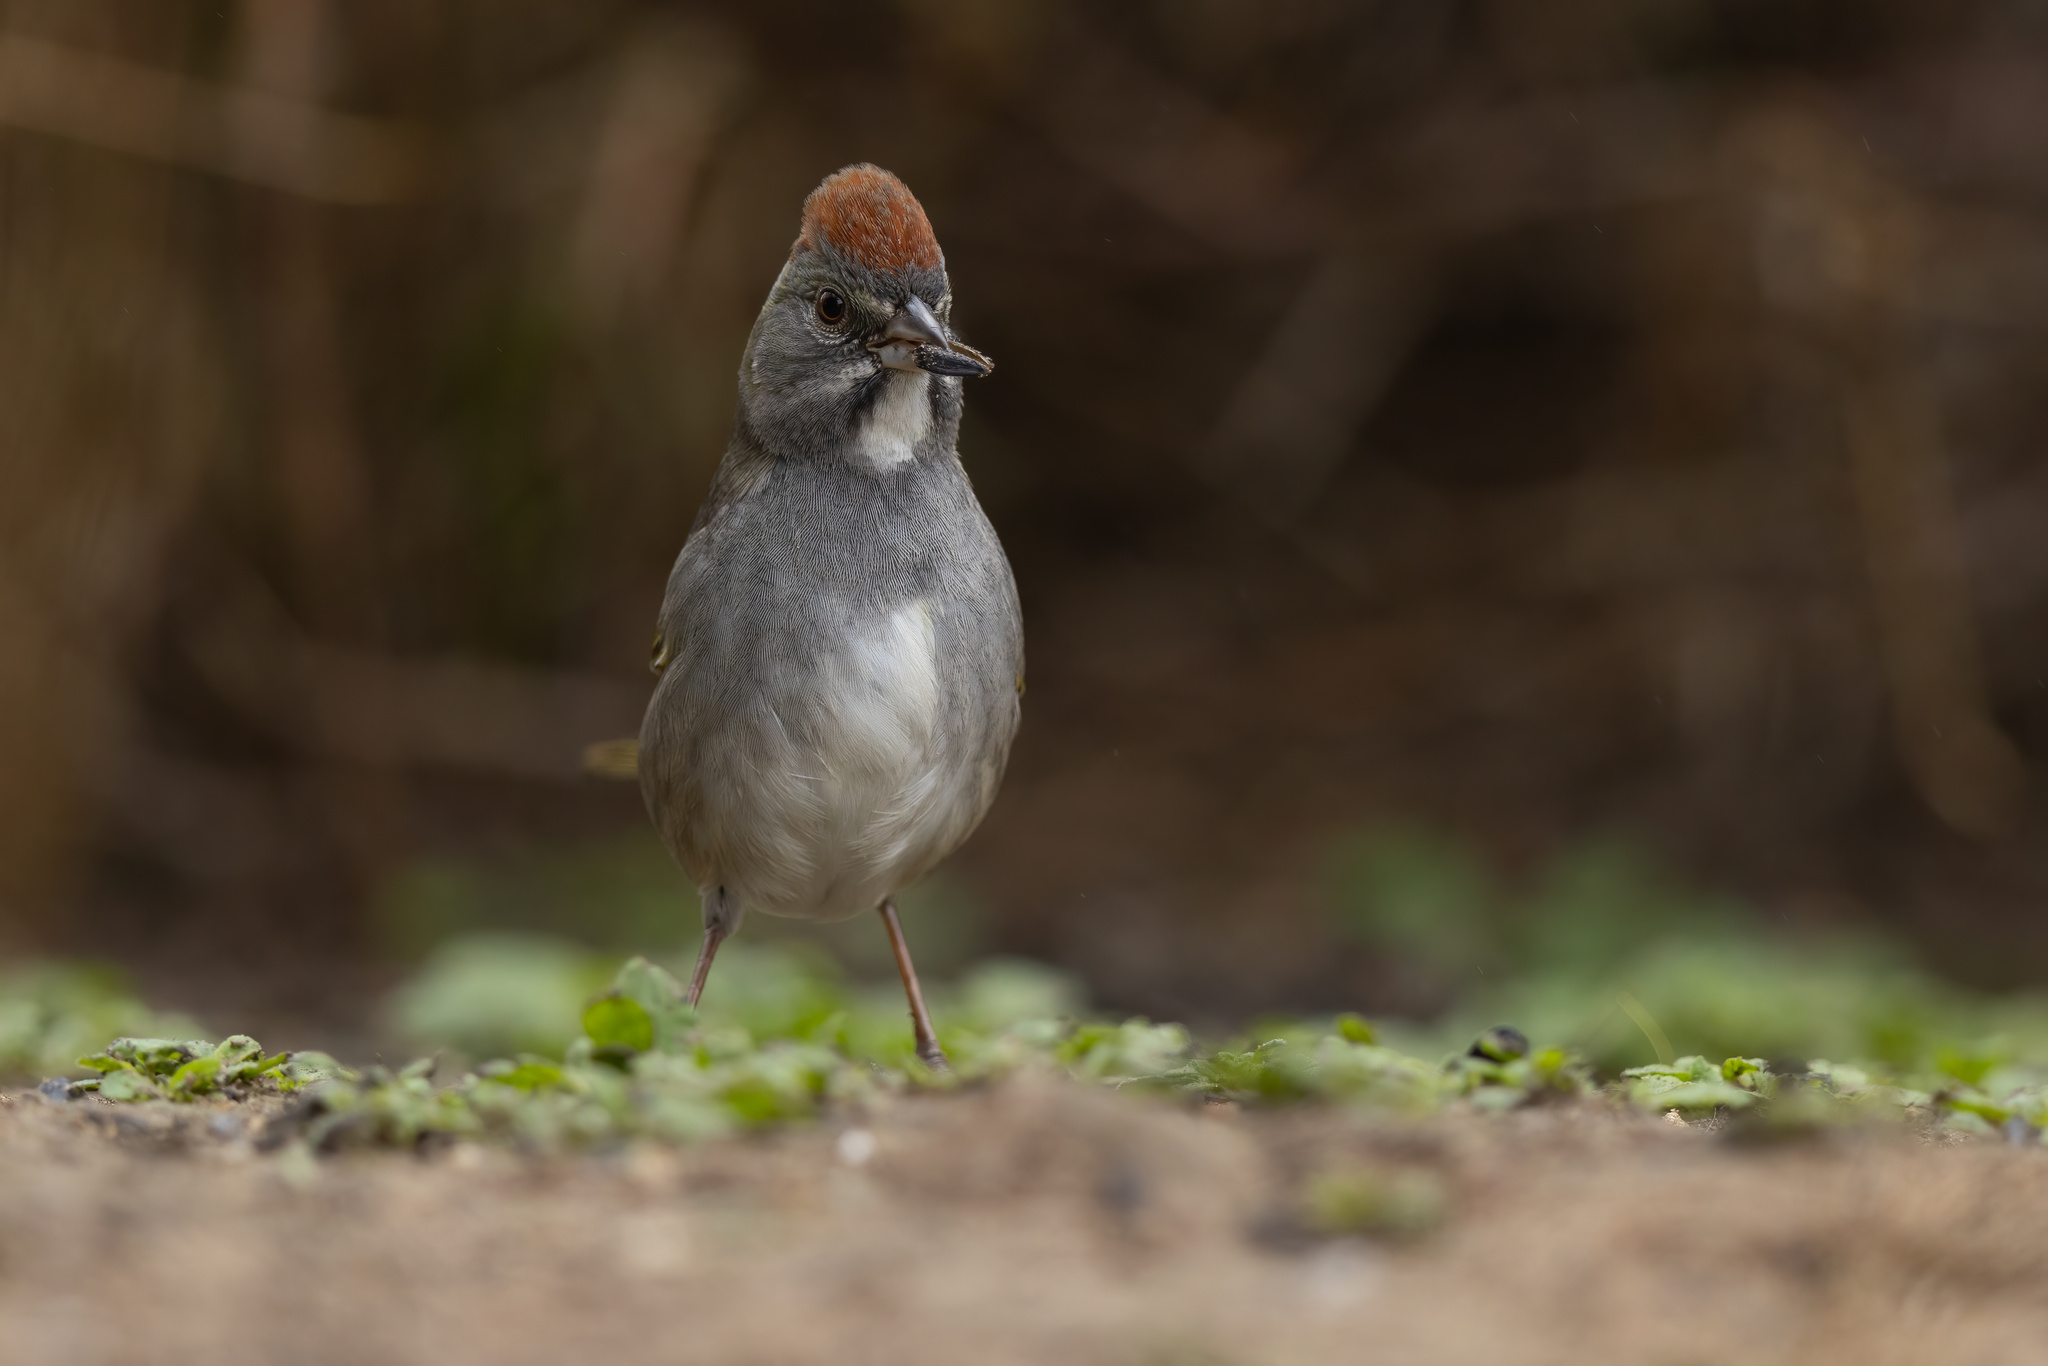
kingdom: Animalia
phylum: Chordata
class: Aves
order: Passeriformes
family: Passerellidae
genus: Pipilo
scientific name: Pipilo chlorurus
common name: Green-tailed towhee
